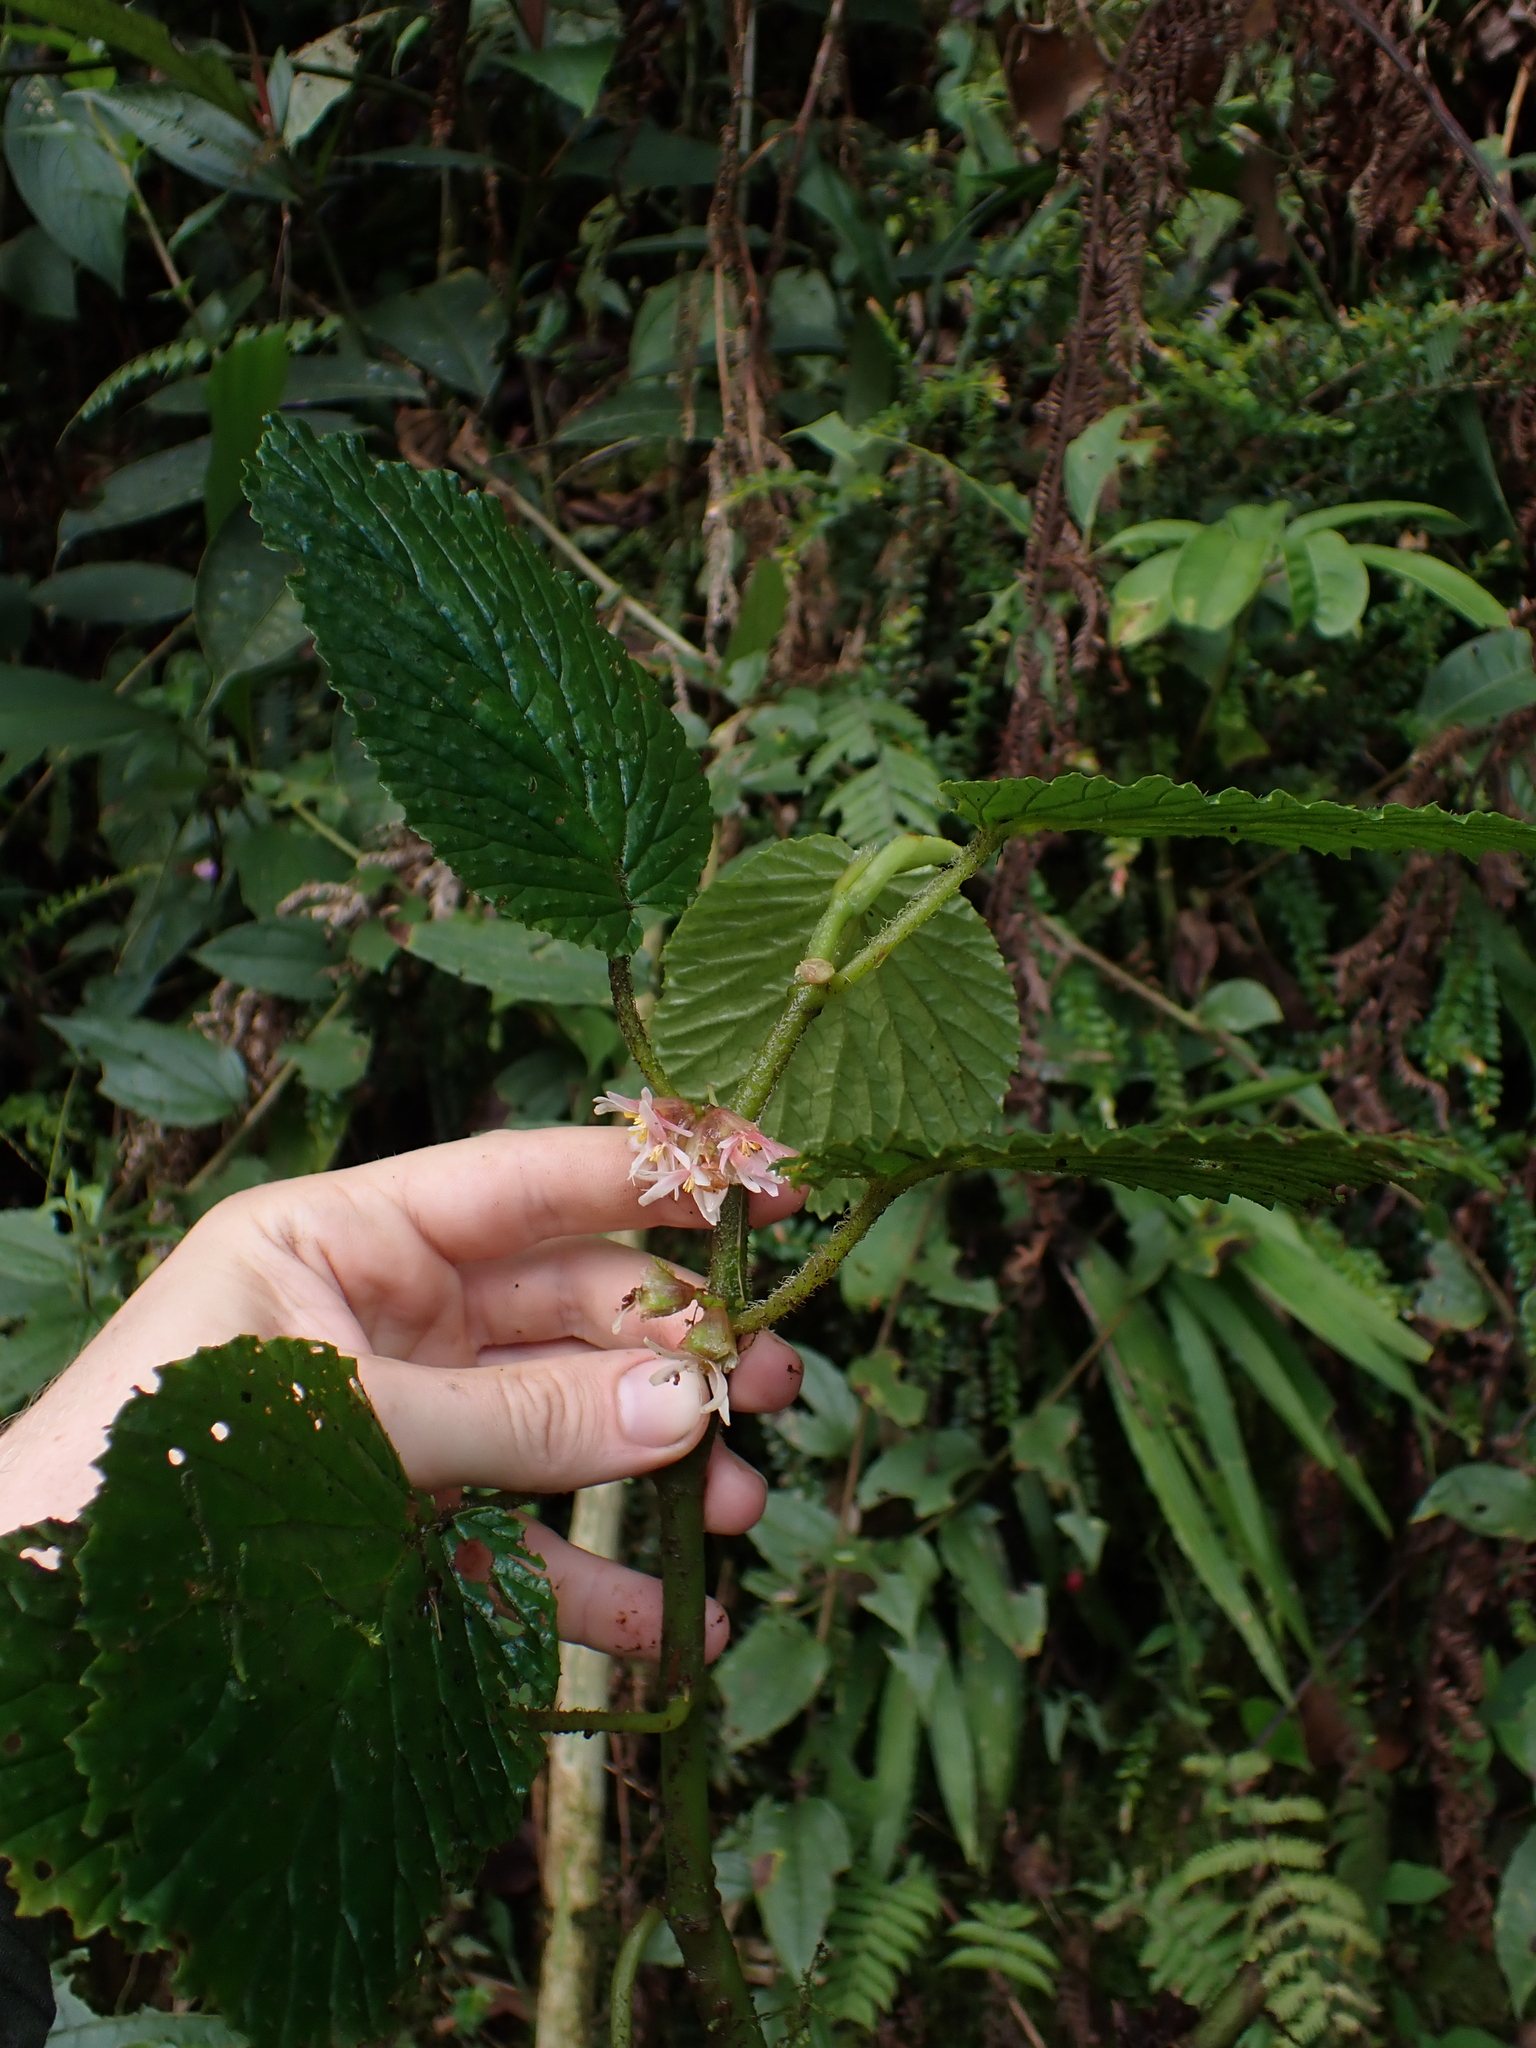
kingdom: Plantae
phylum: Tracheophyta
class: Magnoliopsida
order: Cucurbitales
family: Begoniaceae
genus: Begonia
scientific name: Begonia tiliifolia
